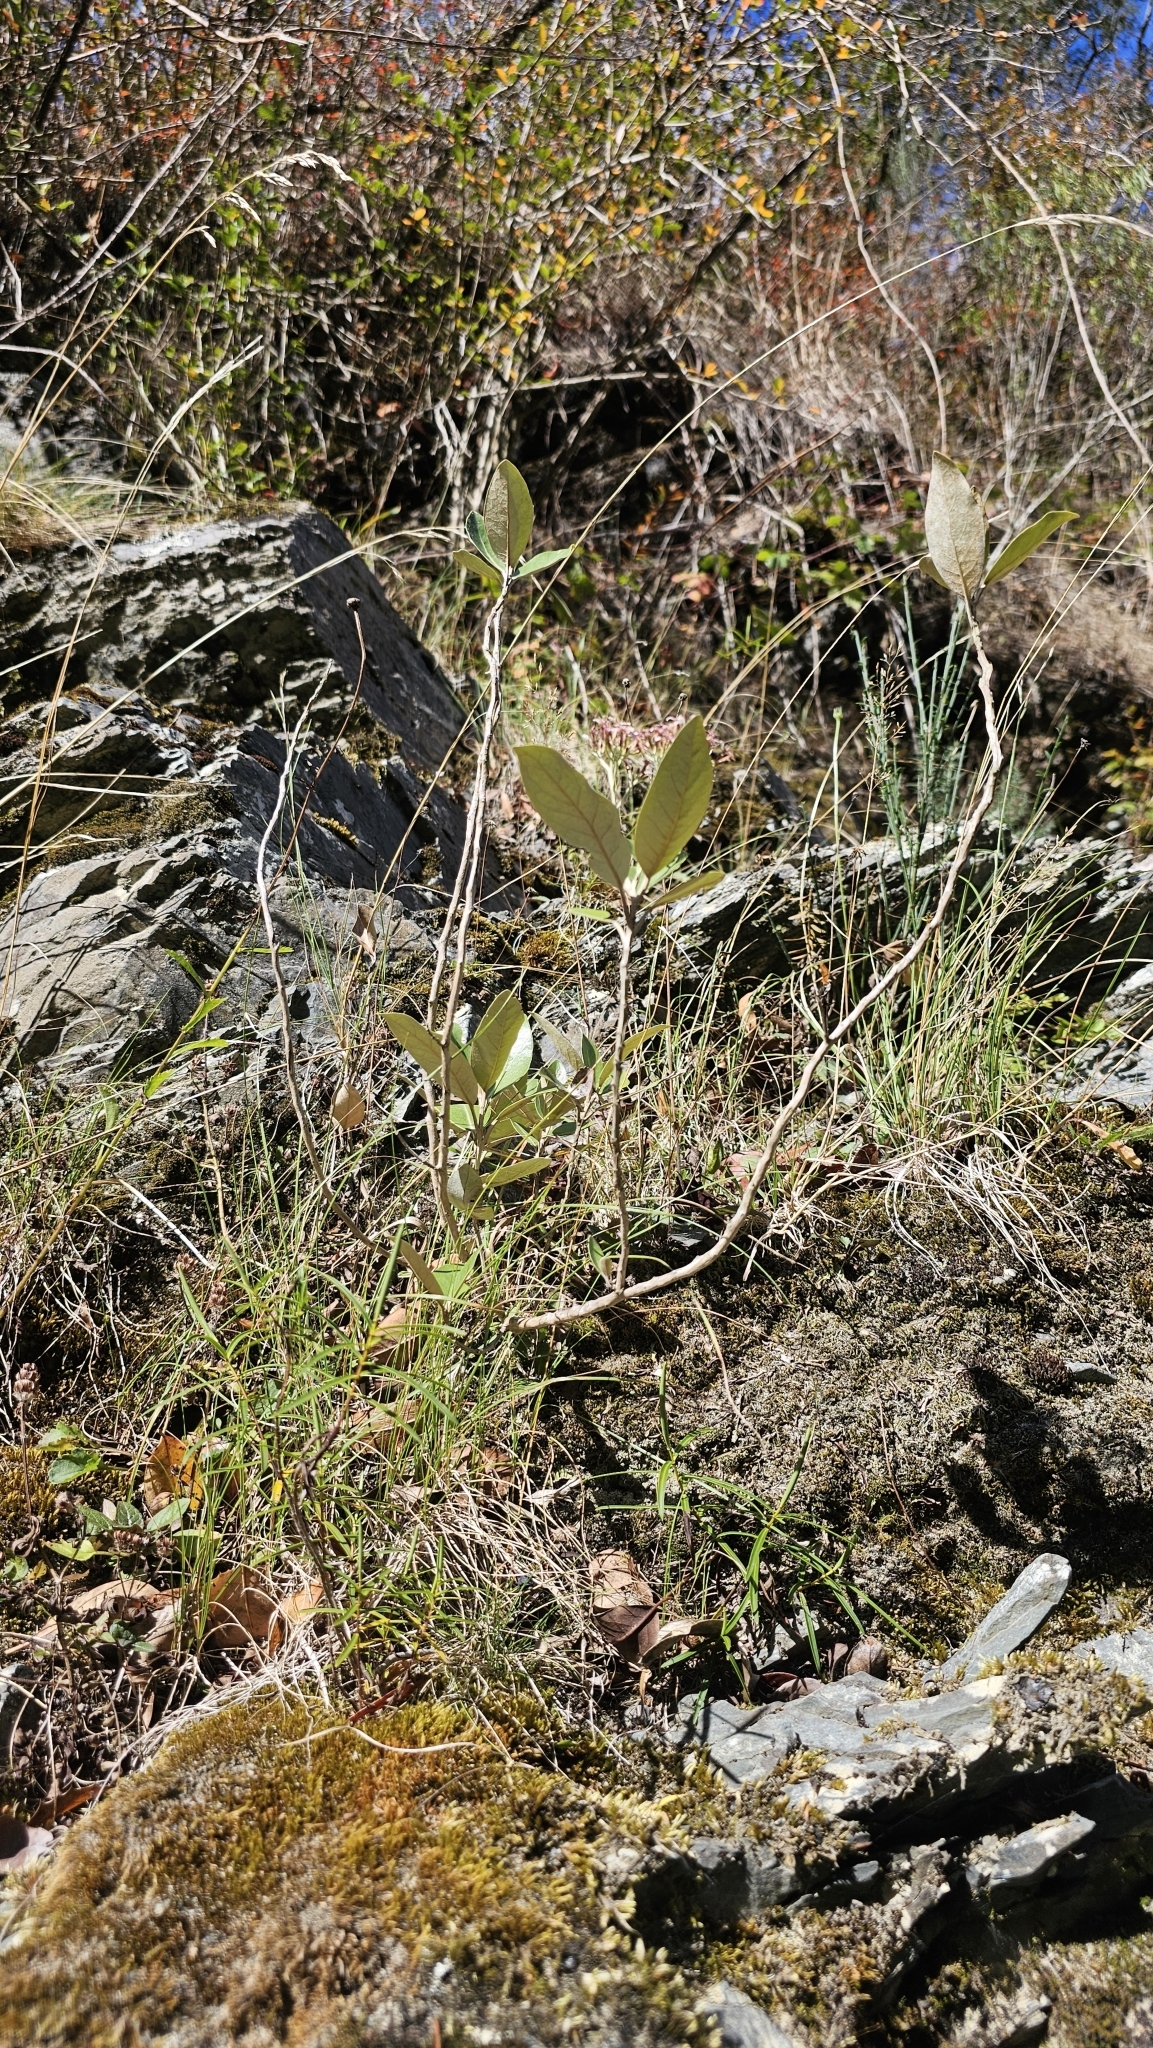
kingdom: Plantae
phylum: Tracheophyta
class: Magnoliopsida
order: Asterales
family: Asteraceae
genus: Olearia
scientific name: Olearia avicenniifolia
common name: Mangrove-leaf daisybush
